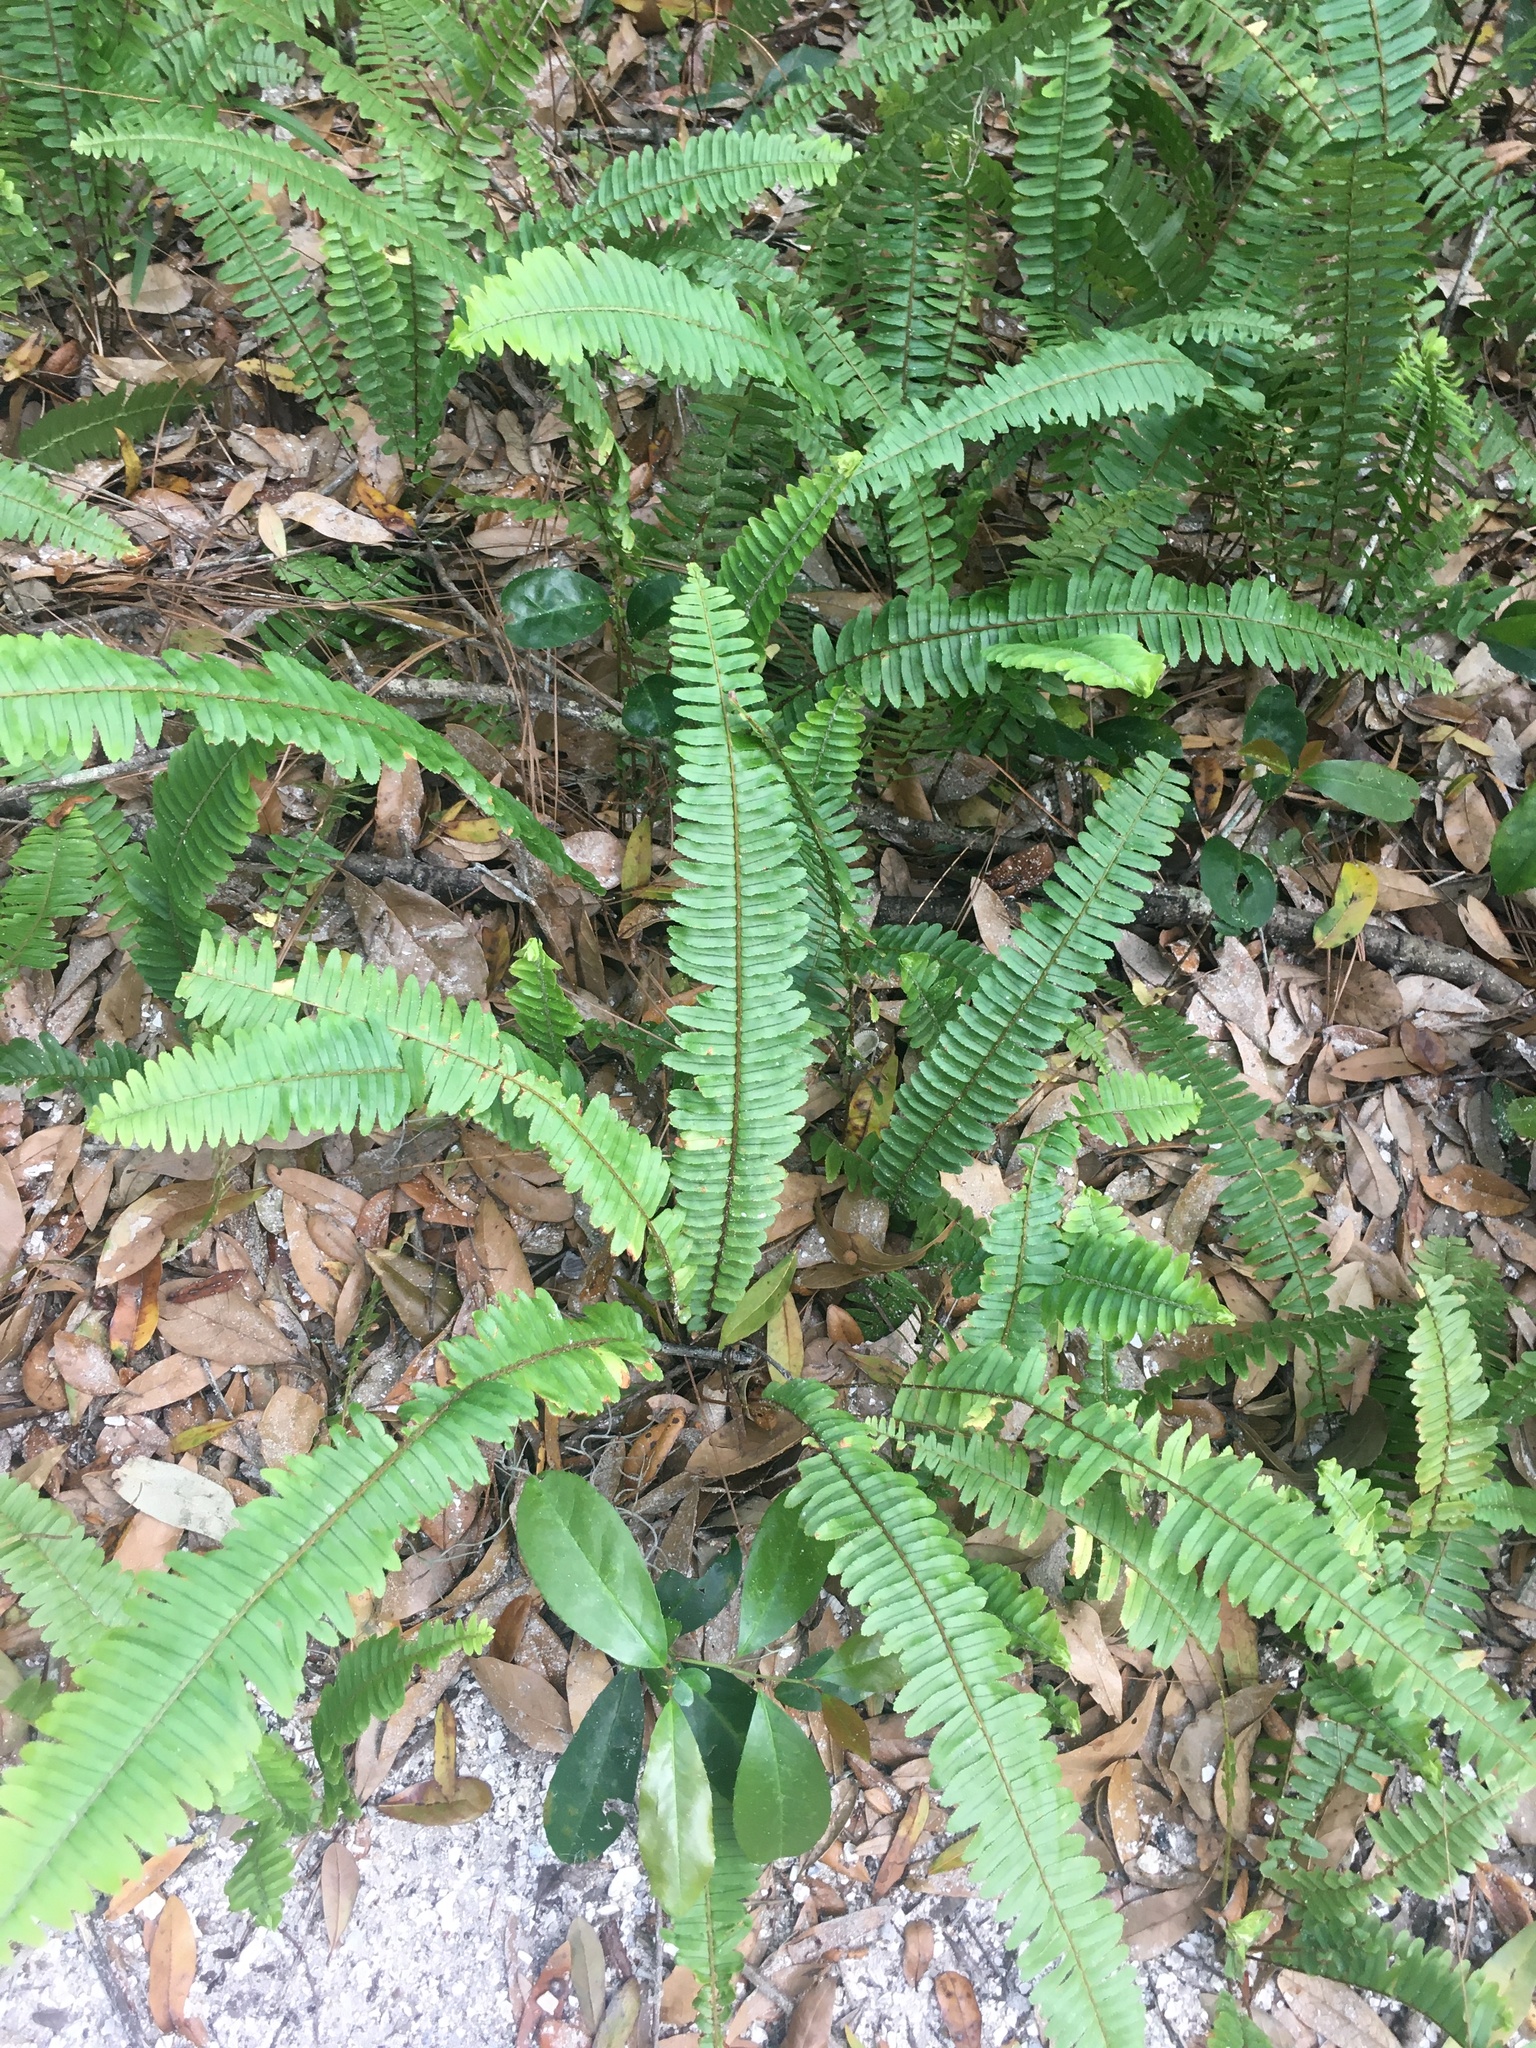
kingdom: Plantae
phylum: Tracheophyta
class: Polypodiopsida
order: Polypodiales
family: Nephrolepidaceae
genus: Nephrolepis
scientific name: Nephrolepis cordifolia
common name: Narrow swordfern
